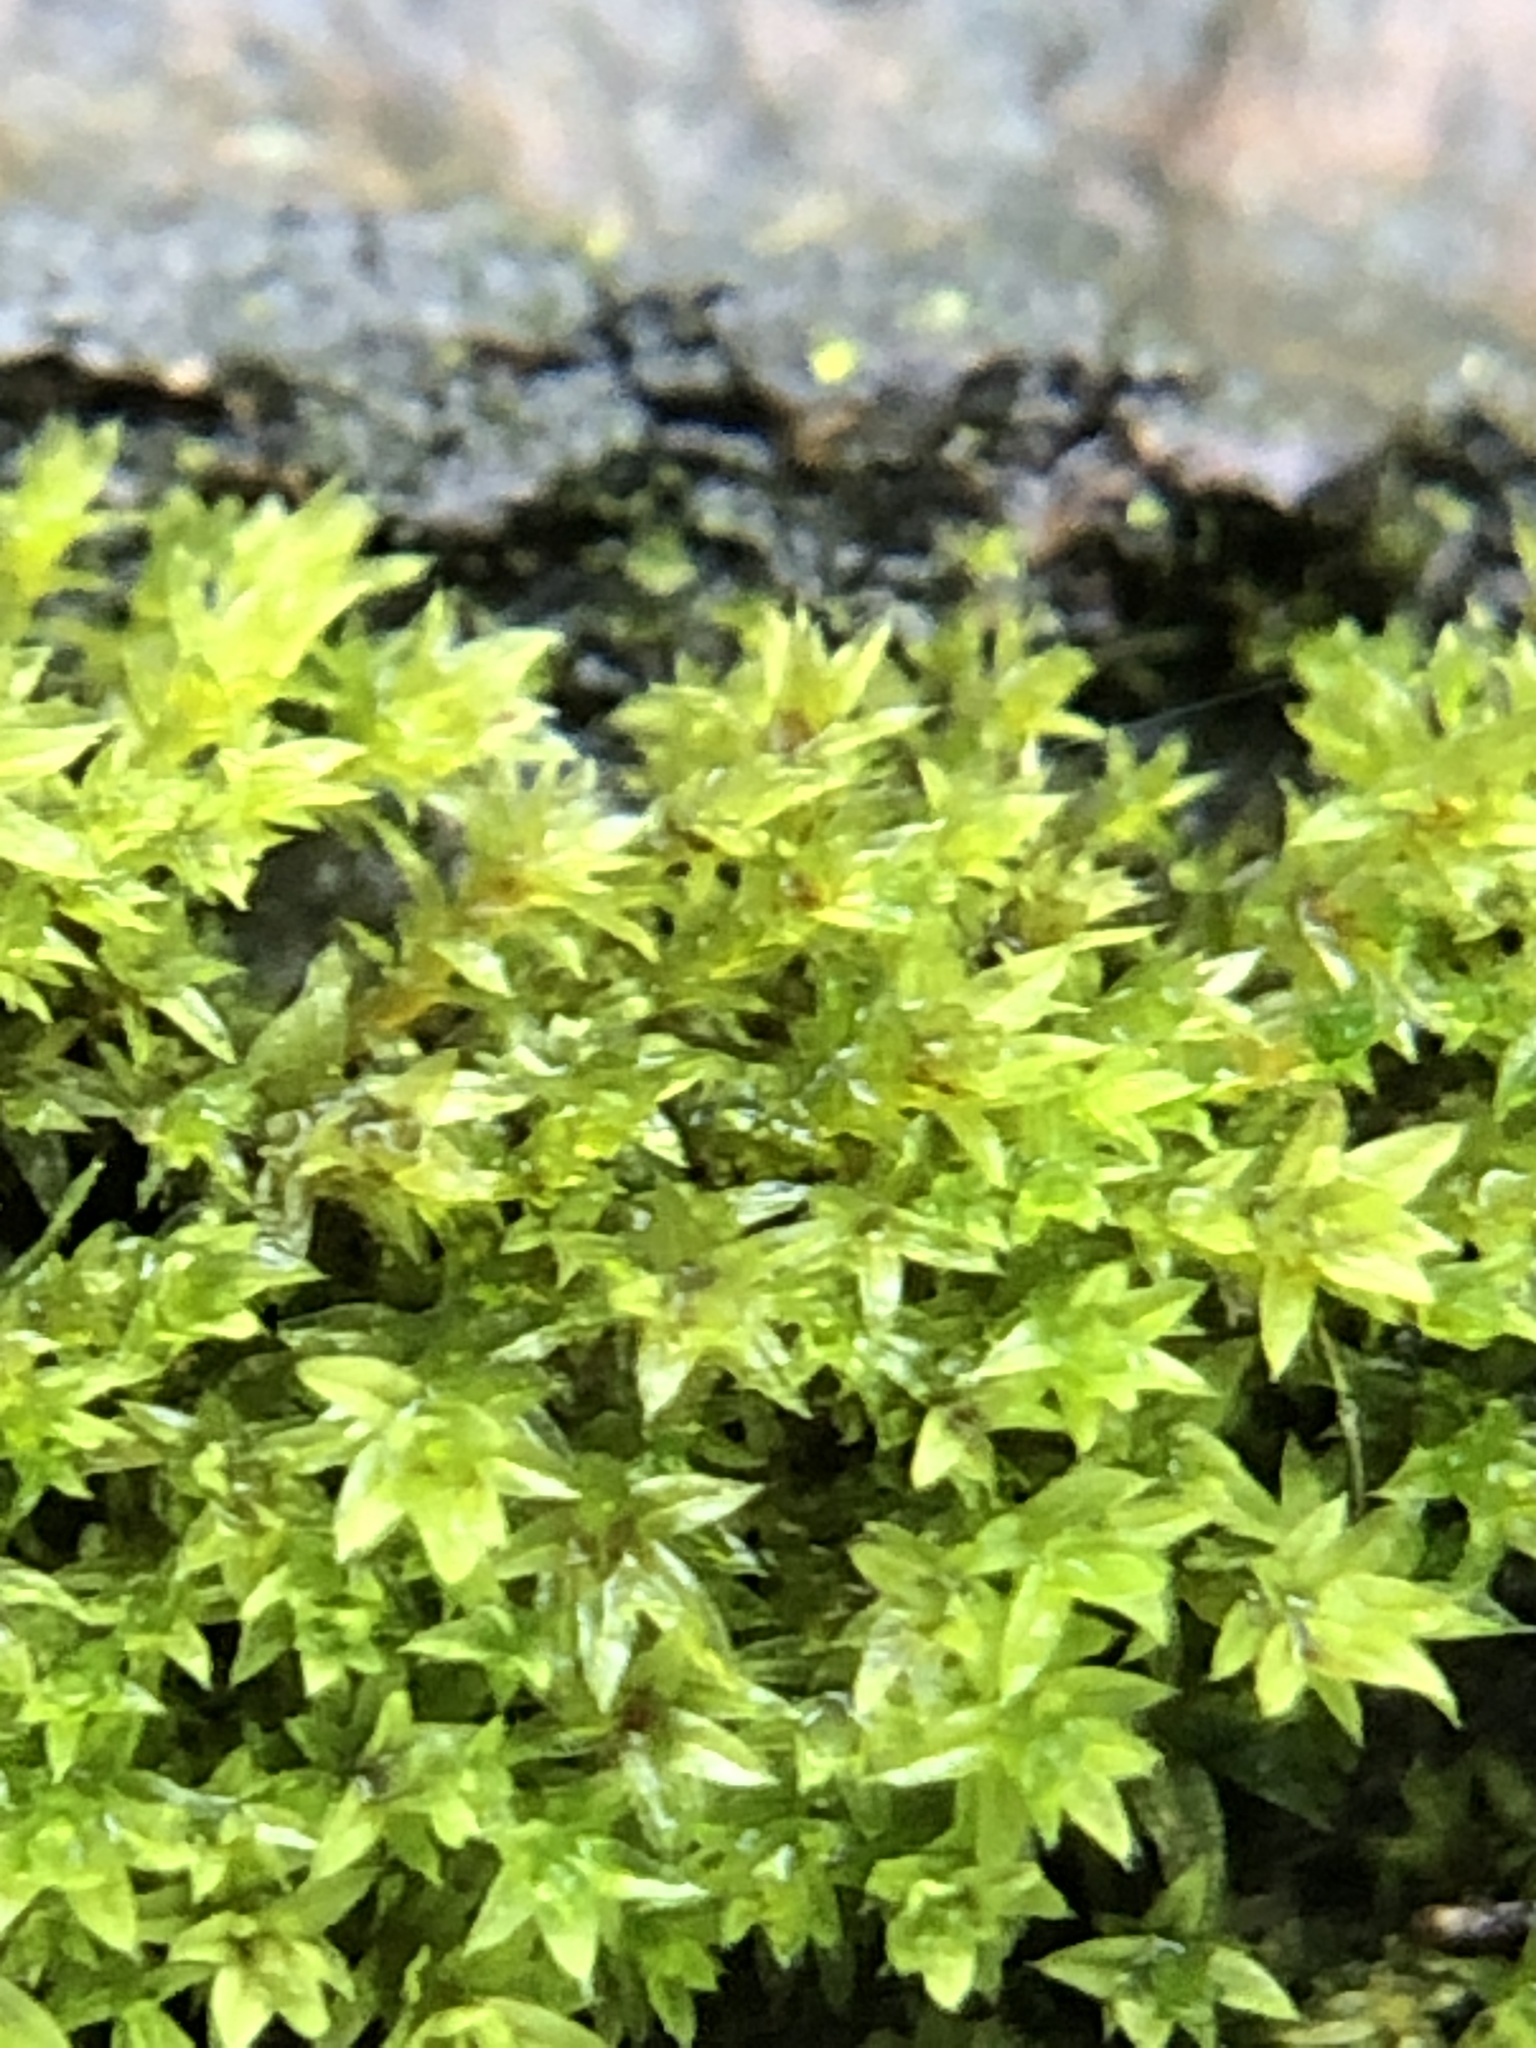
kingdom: Plantae
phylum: Bryophyta
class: Bryopsida
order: Orthotrichales
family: Orthotrichaceae
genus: Zygodon
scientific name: Zygodon conoideus
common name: Lesser yoke-moss
